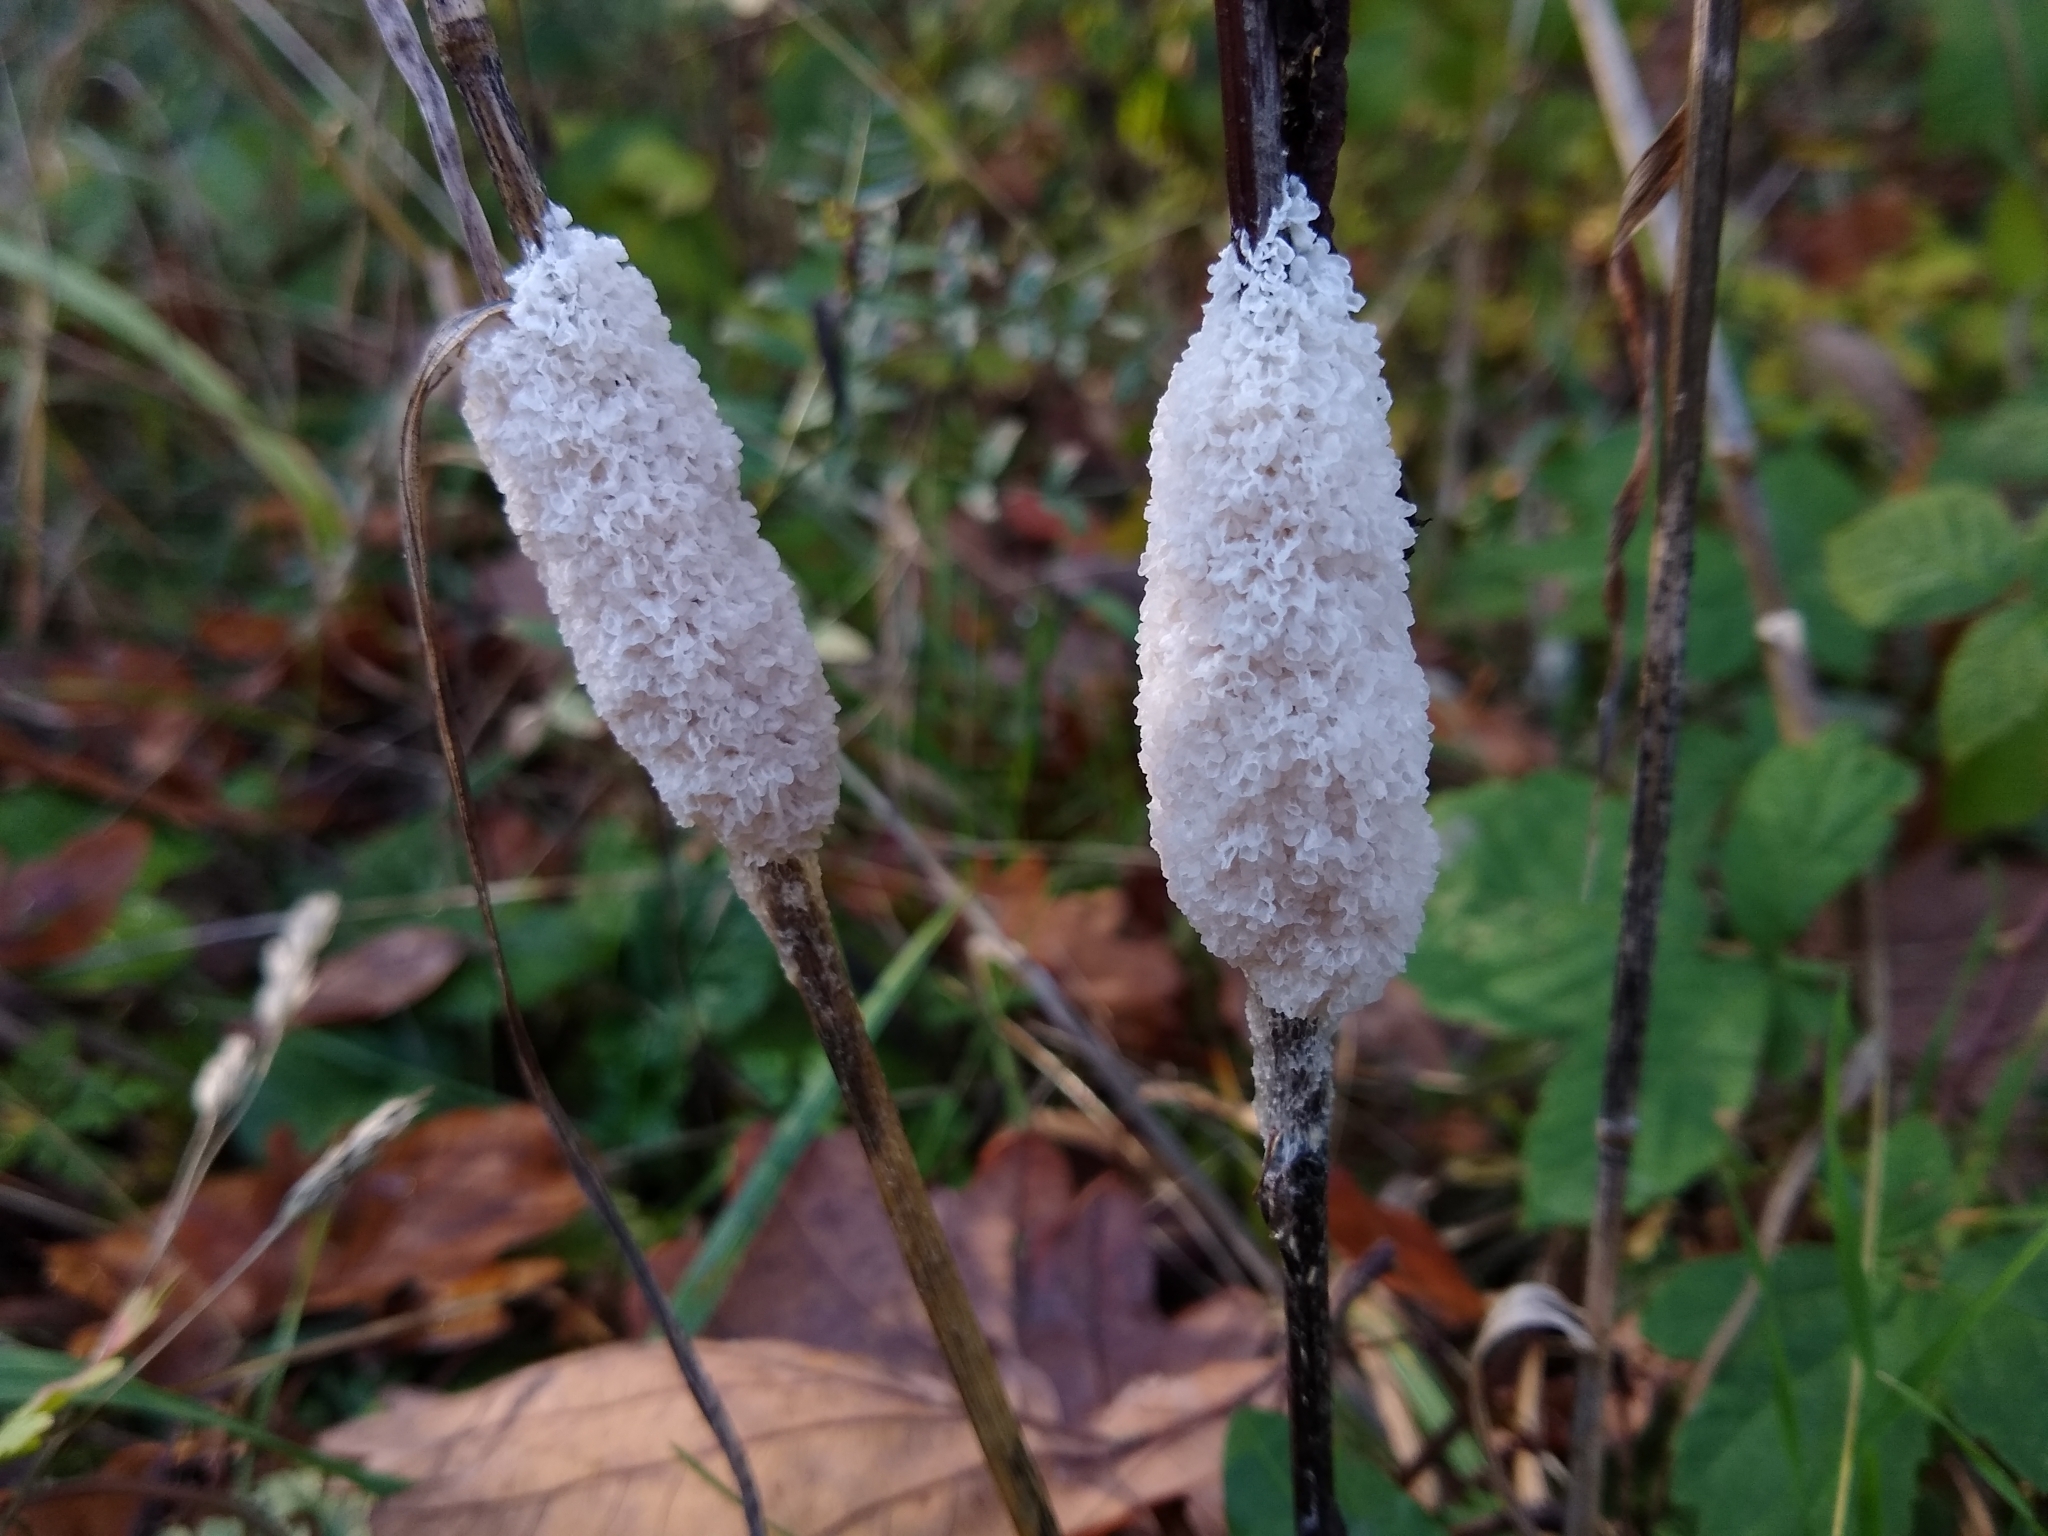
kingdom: Protozoa
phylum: Mycetozoa
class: Myxomycetes
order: Physarales
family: Physaraceae
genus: Didymium
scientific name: Didymium
